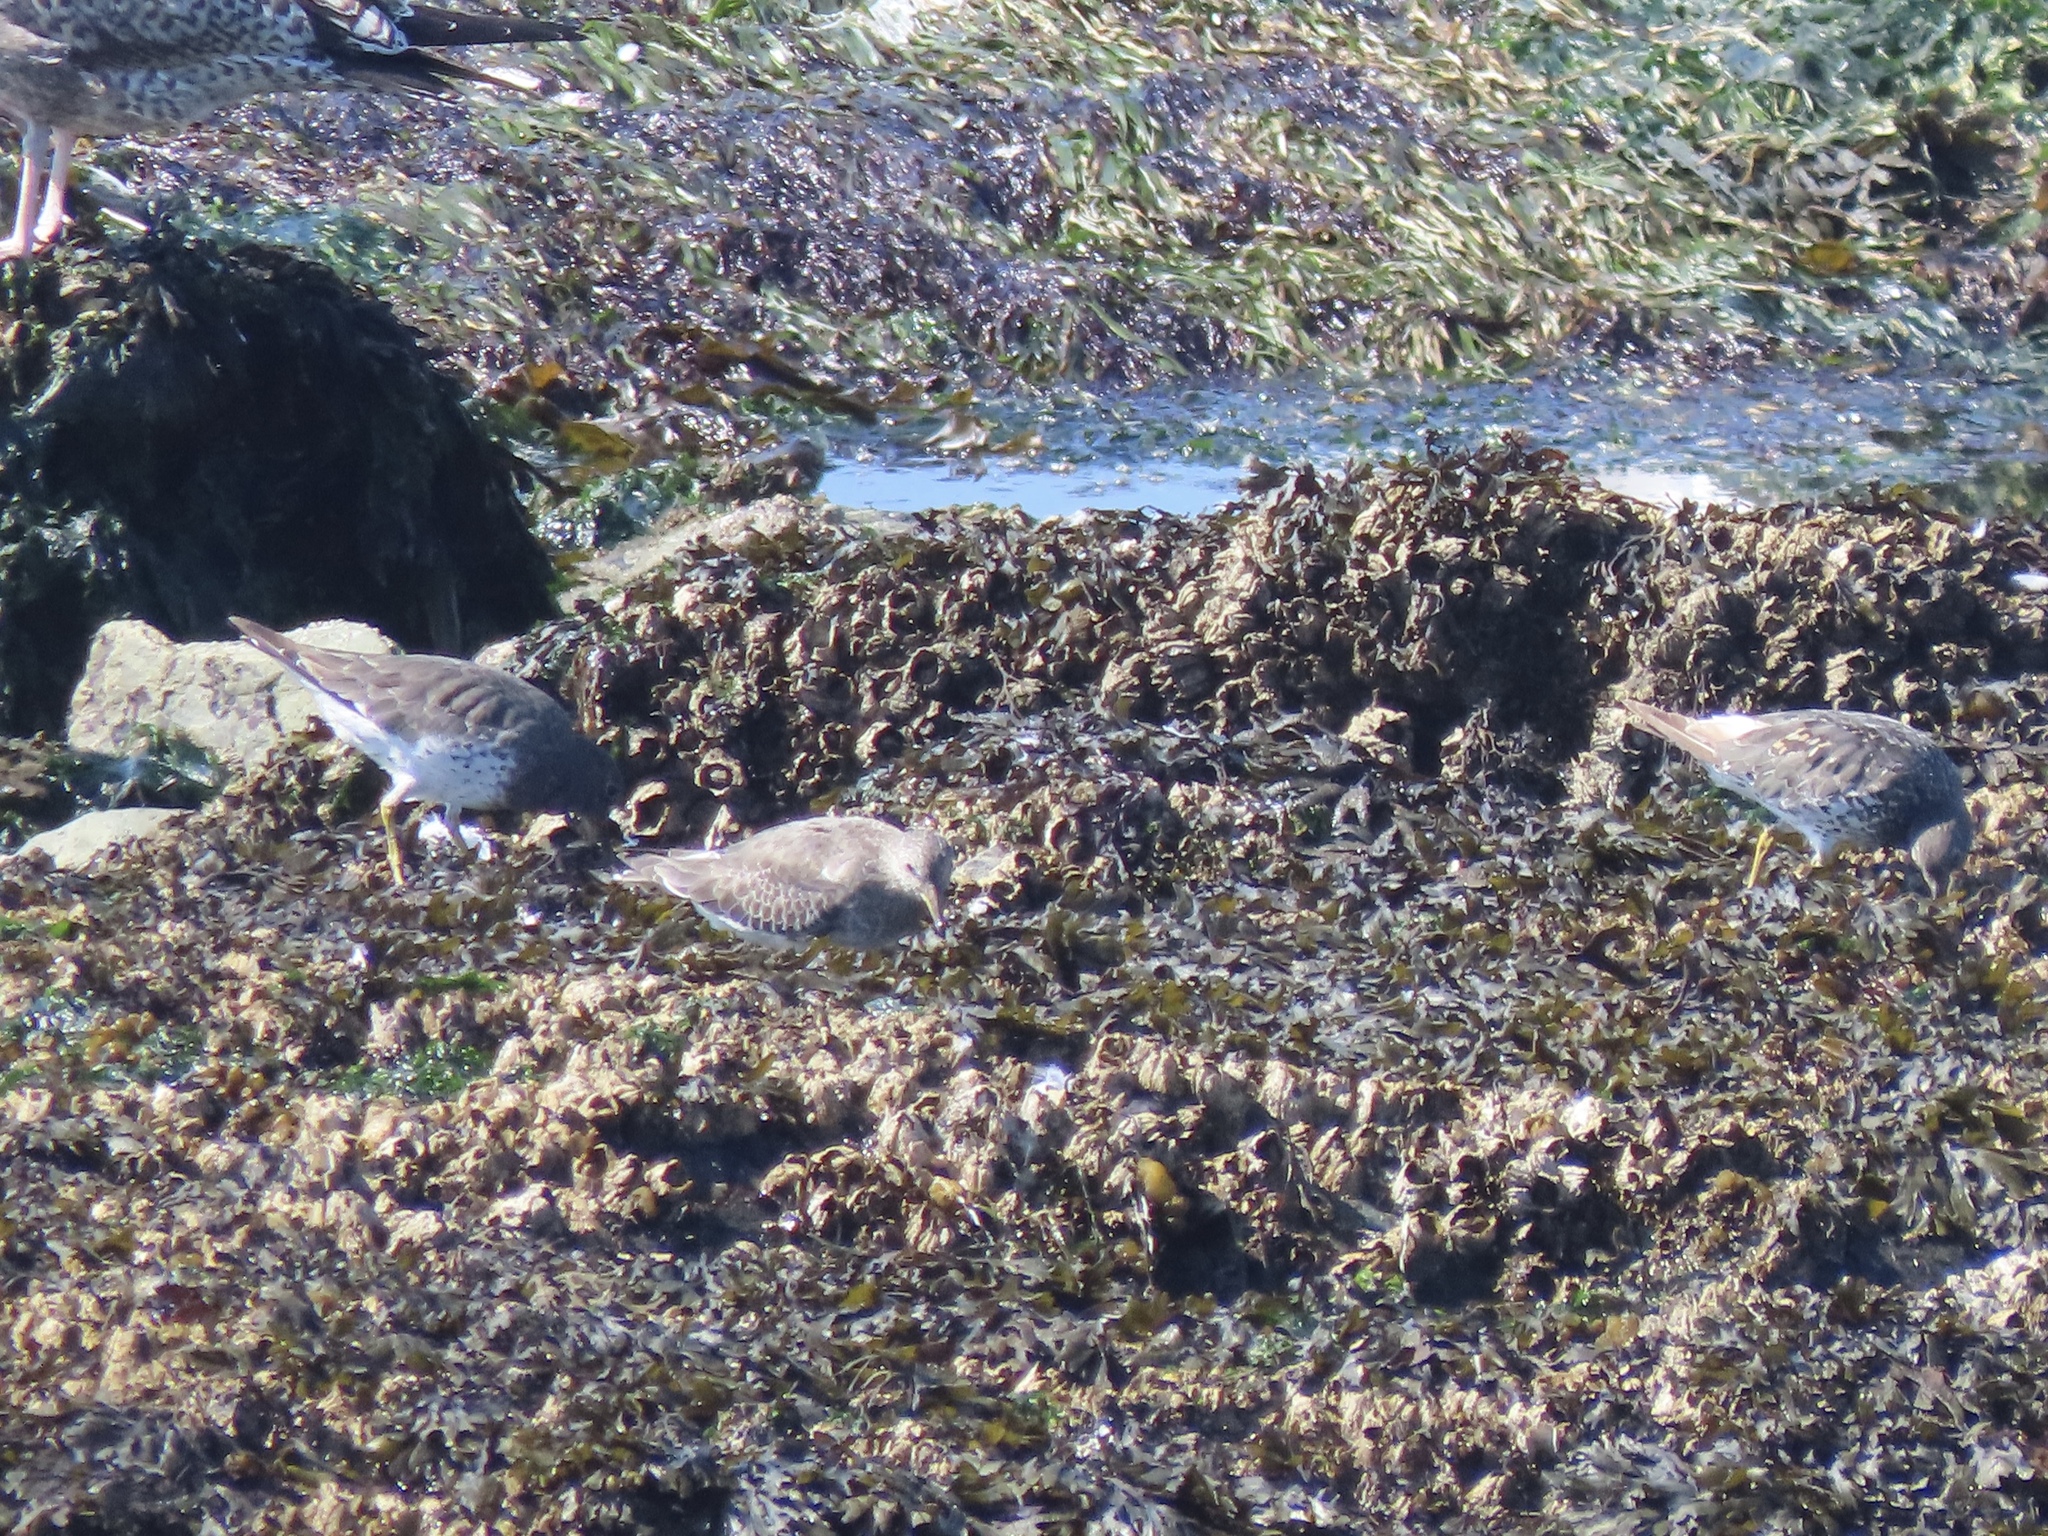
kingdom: Animalia
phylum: Chordata
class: Aves
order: Charadriiformes
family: Scolopacidae
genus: Calidris
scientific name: Calidris virgata
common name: Surfbird
